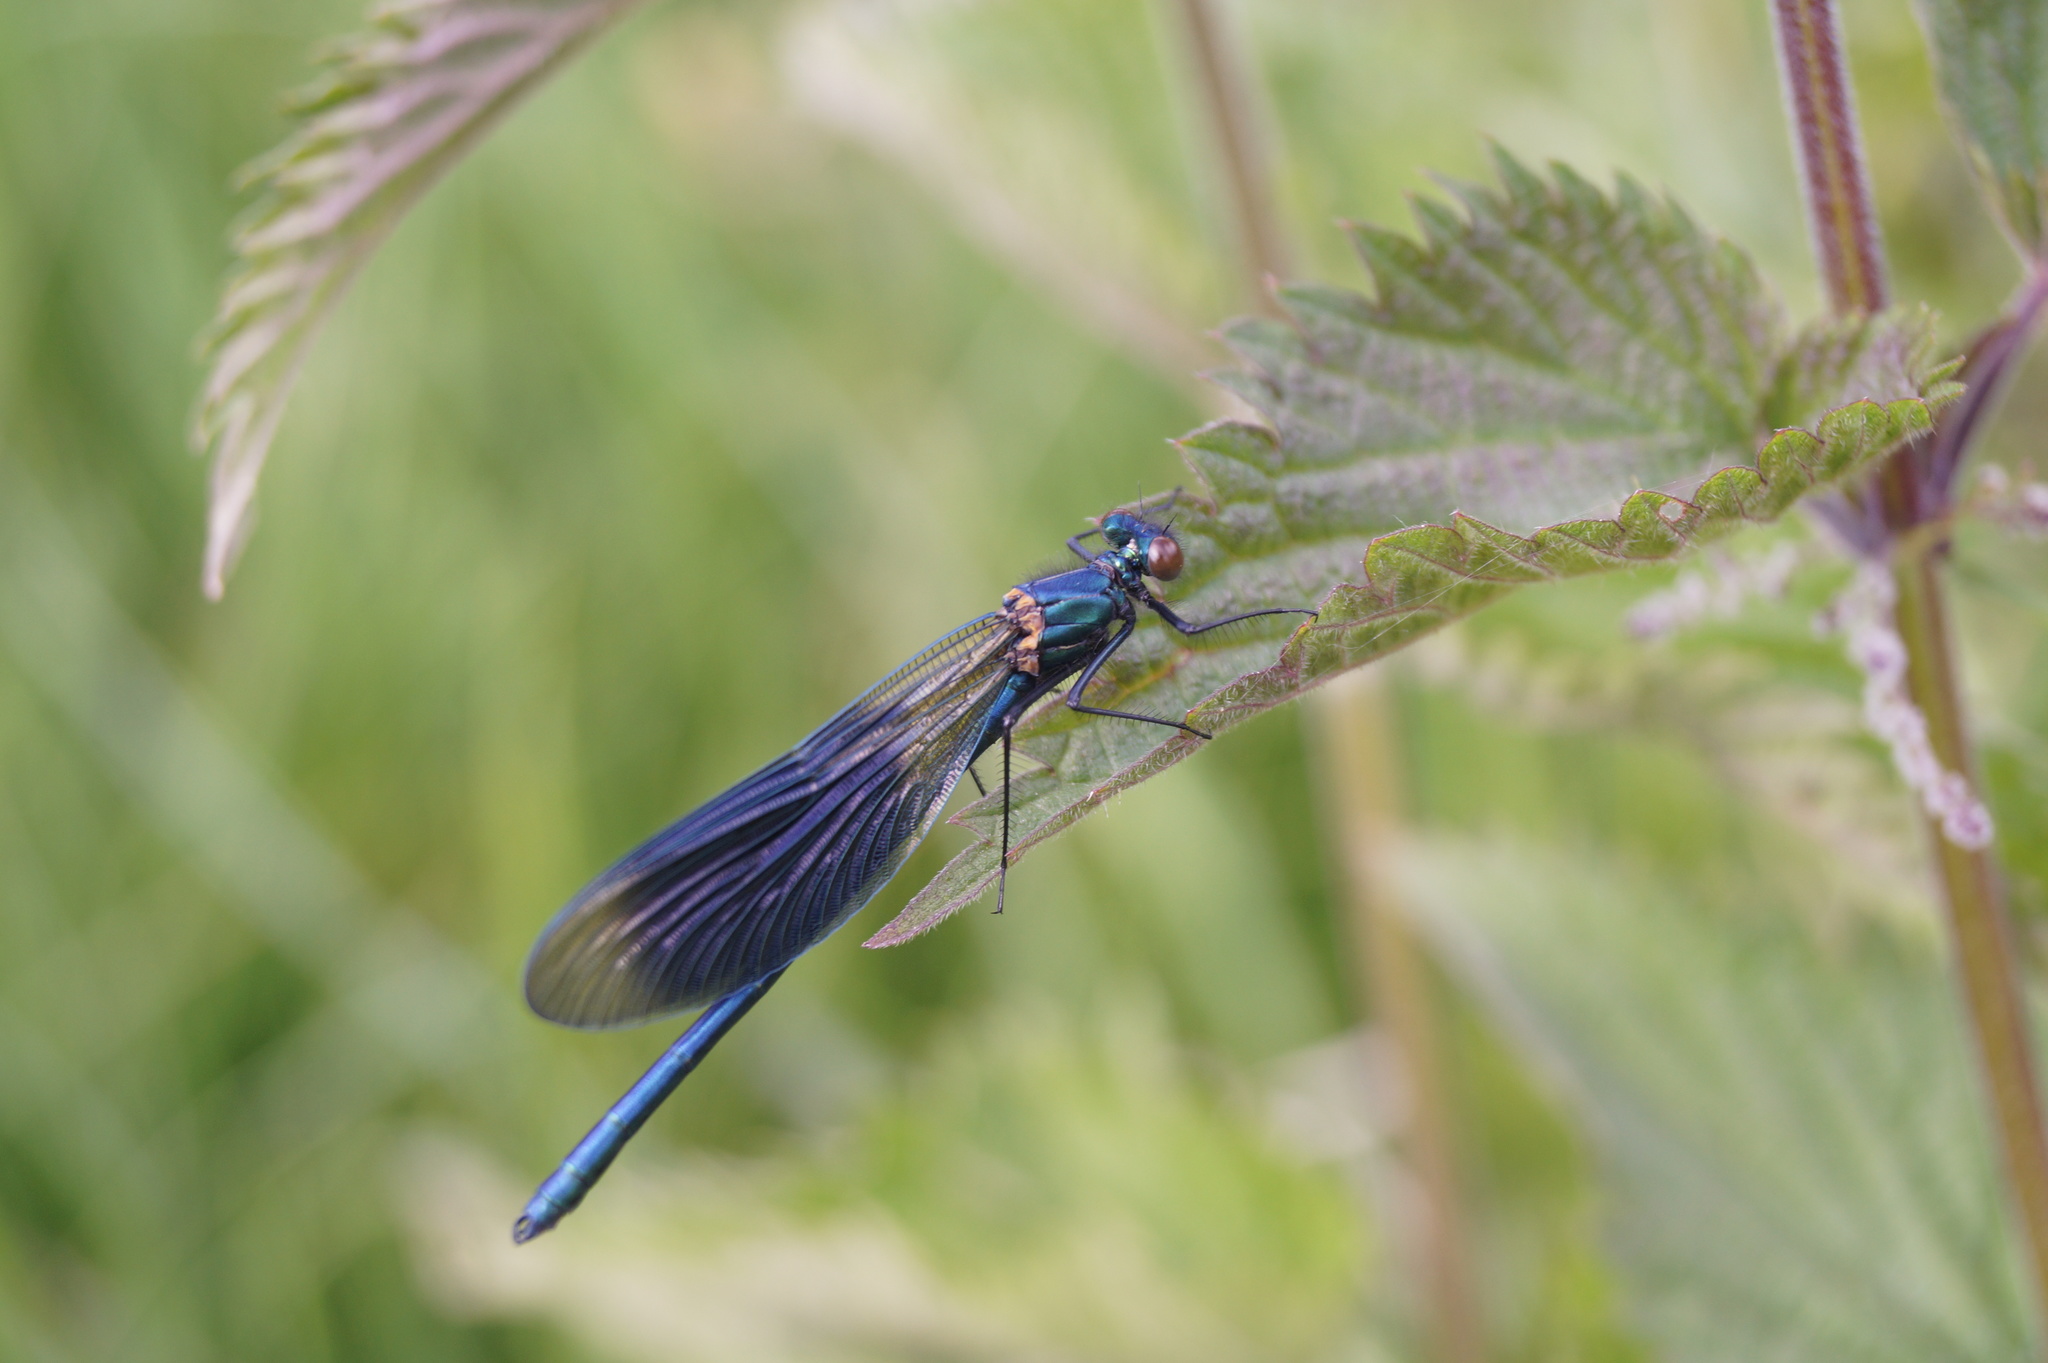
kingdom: Animalia
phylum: Arthropoda
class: Insecta
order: Odonata
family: Calopterygidae
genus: Calopteryx
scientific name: Calopteryx splendens
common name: Banded demoiselle
